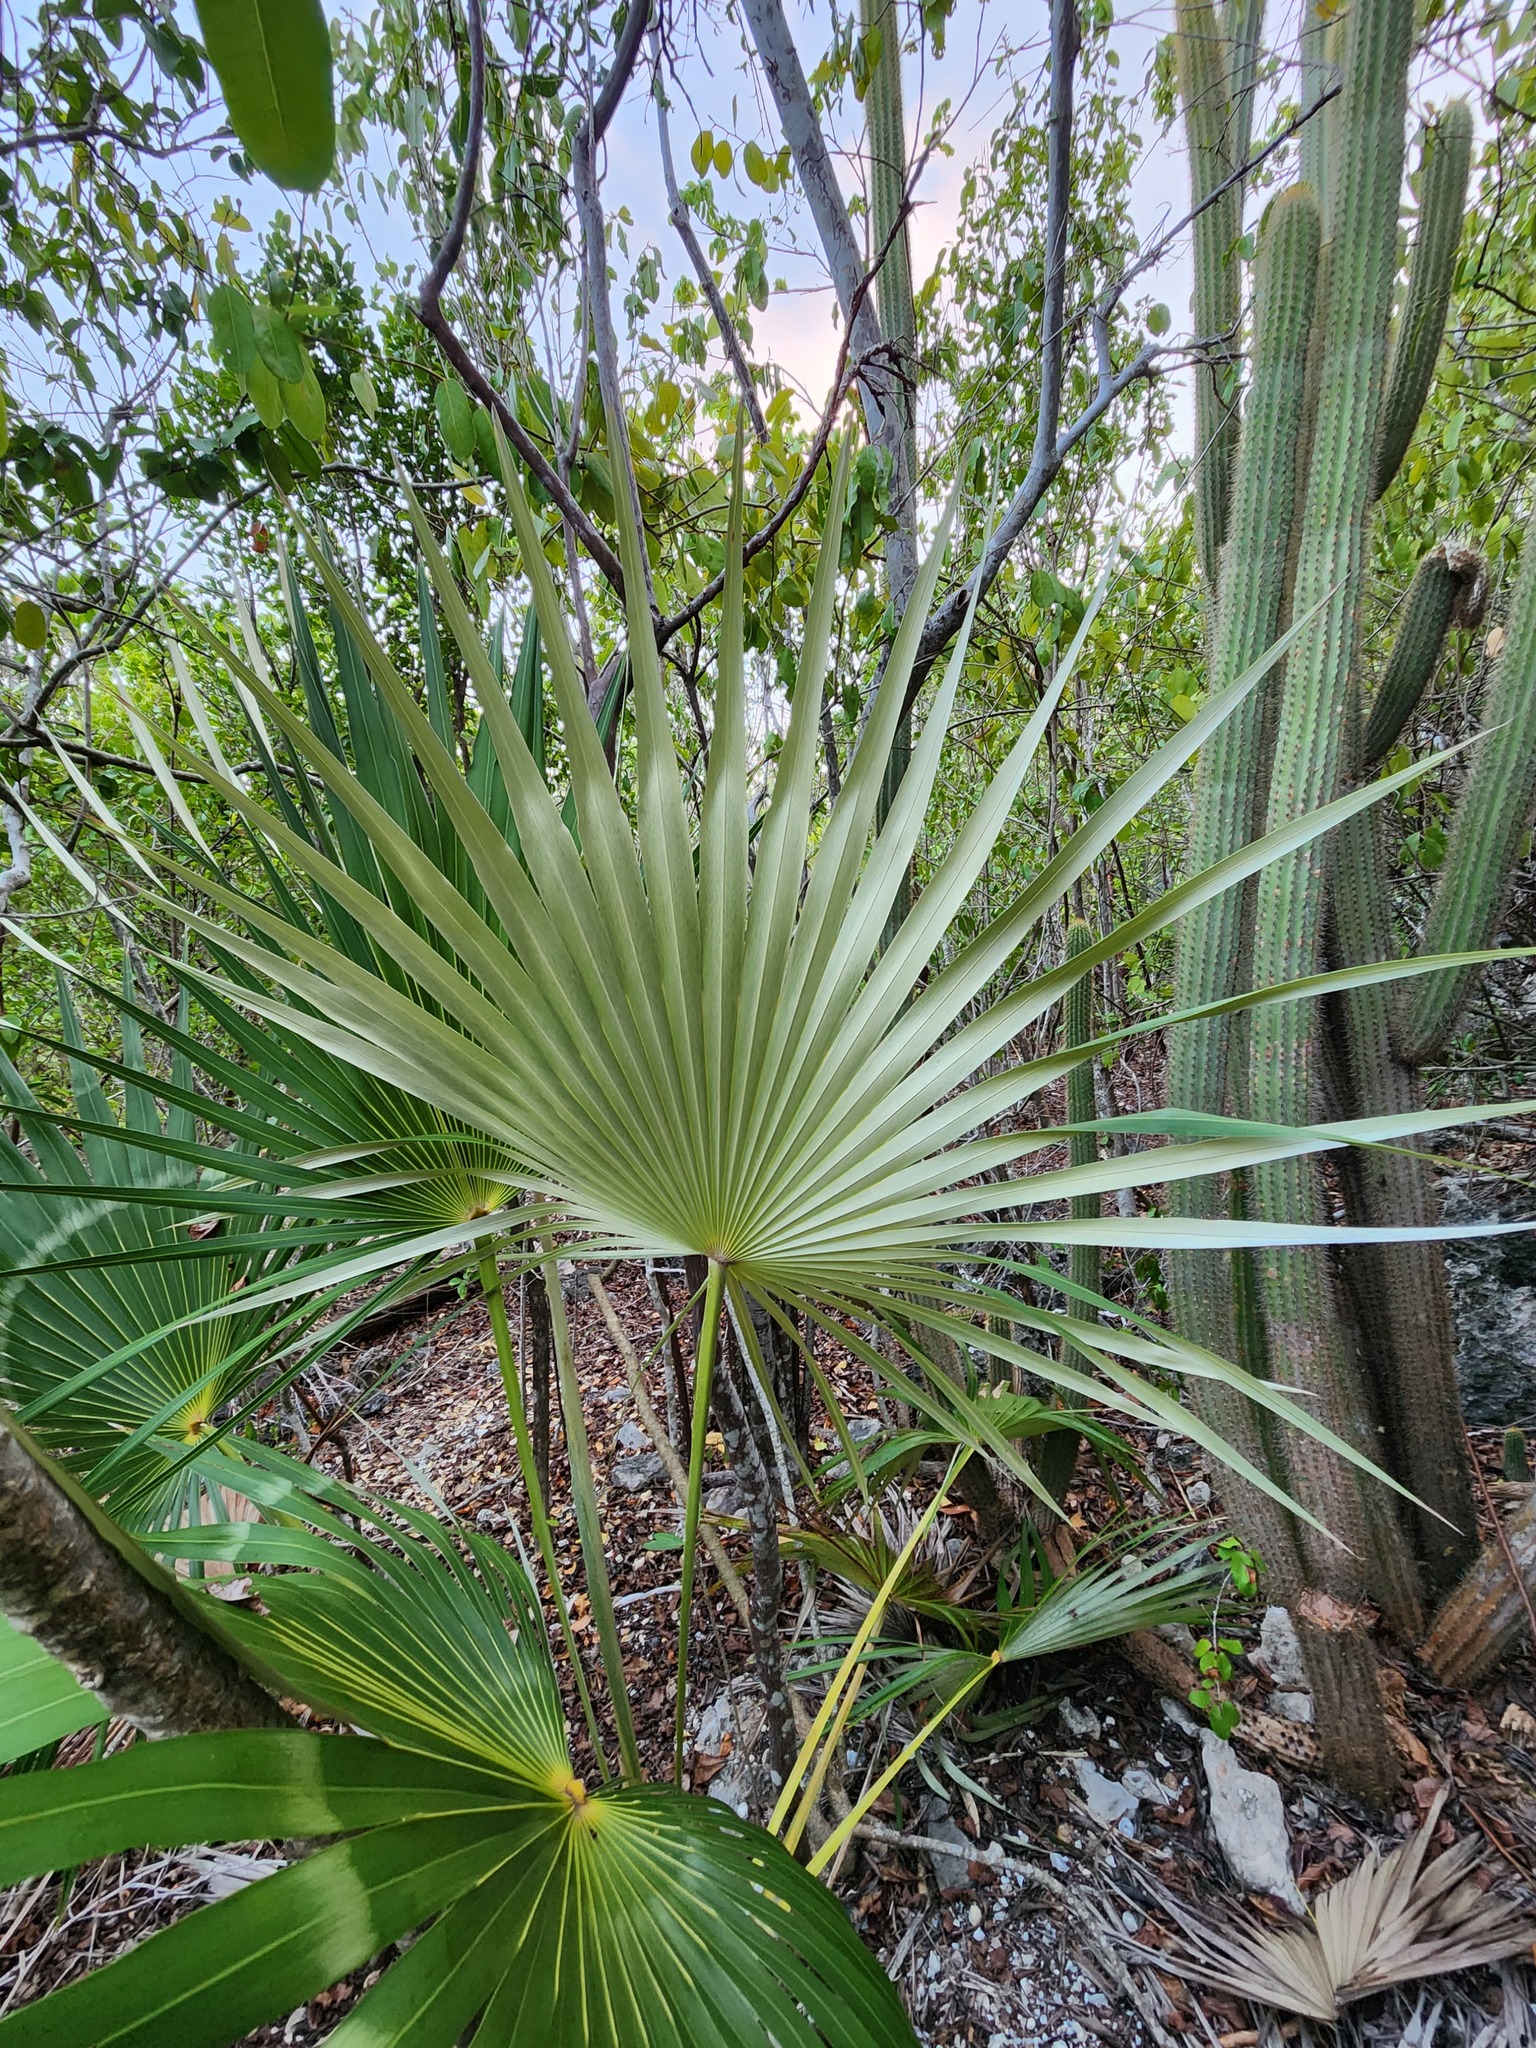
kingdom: Plantae
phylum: Tracheophyta
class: Liliopsida
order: Arecales
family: Arecaceae
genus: Coccothrinax
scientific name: Coccothrinax proctorii
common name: Silver palm
